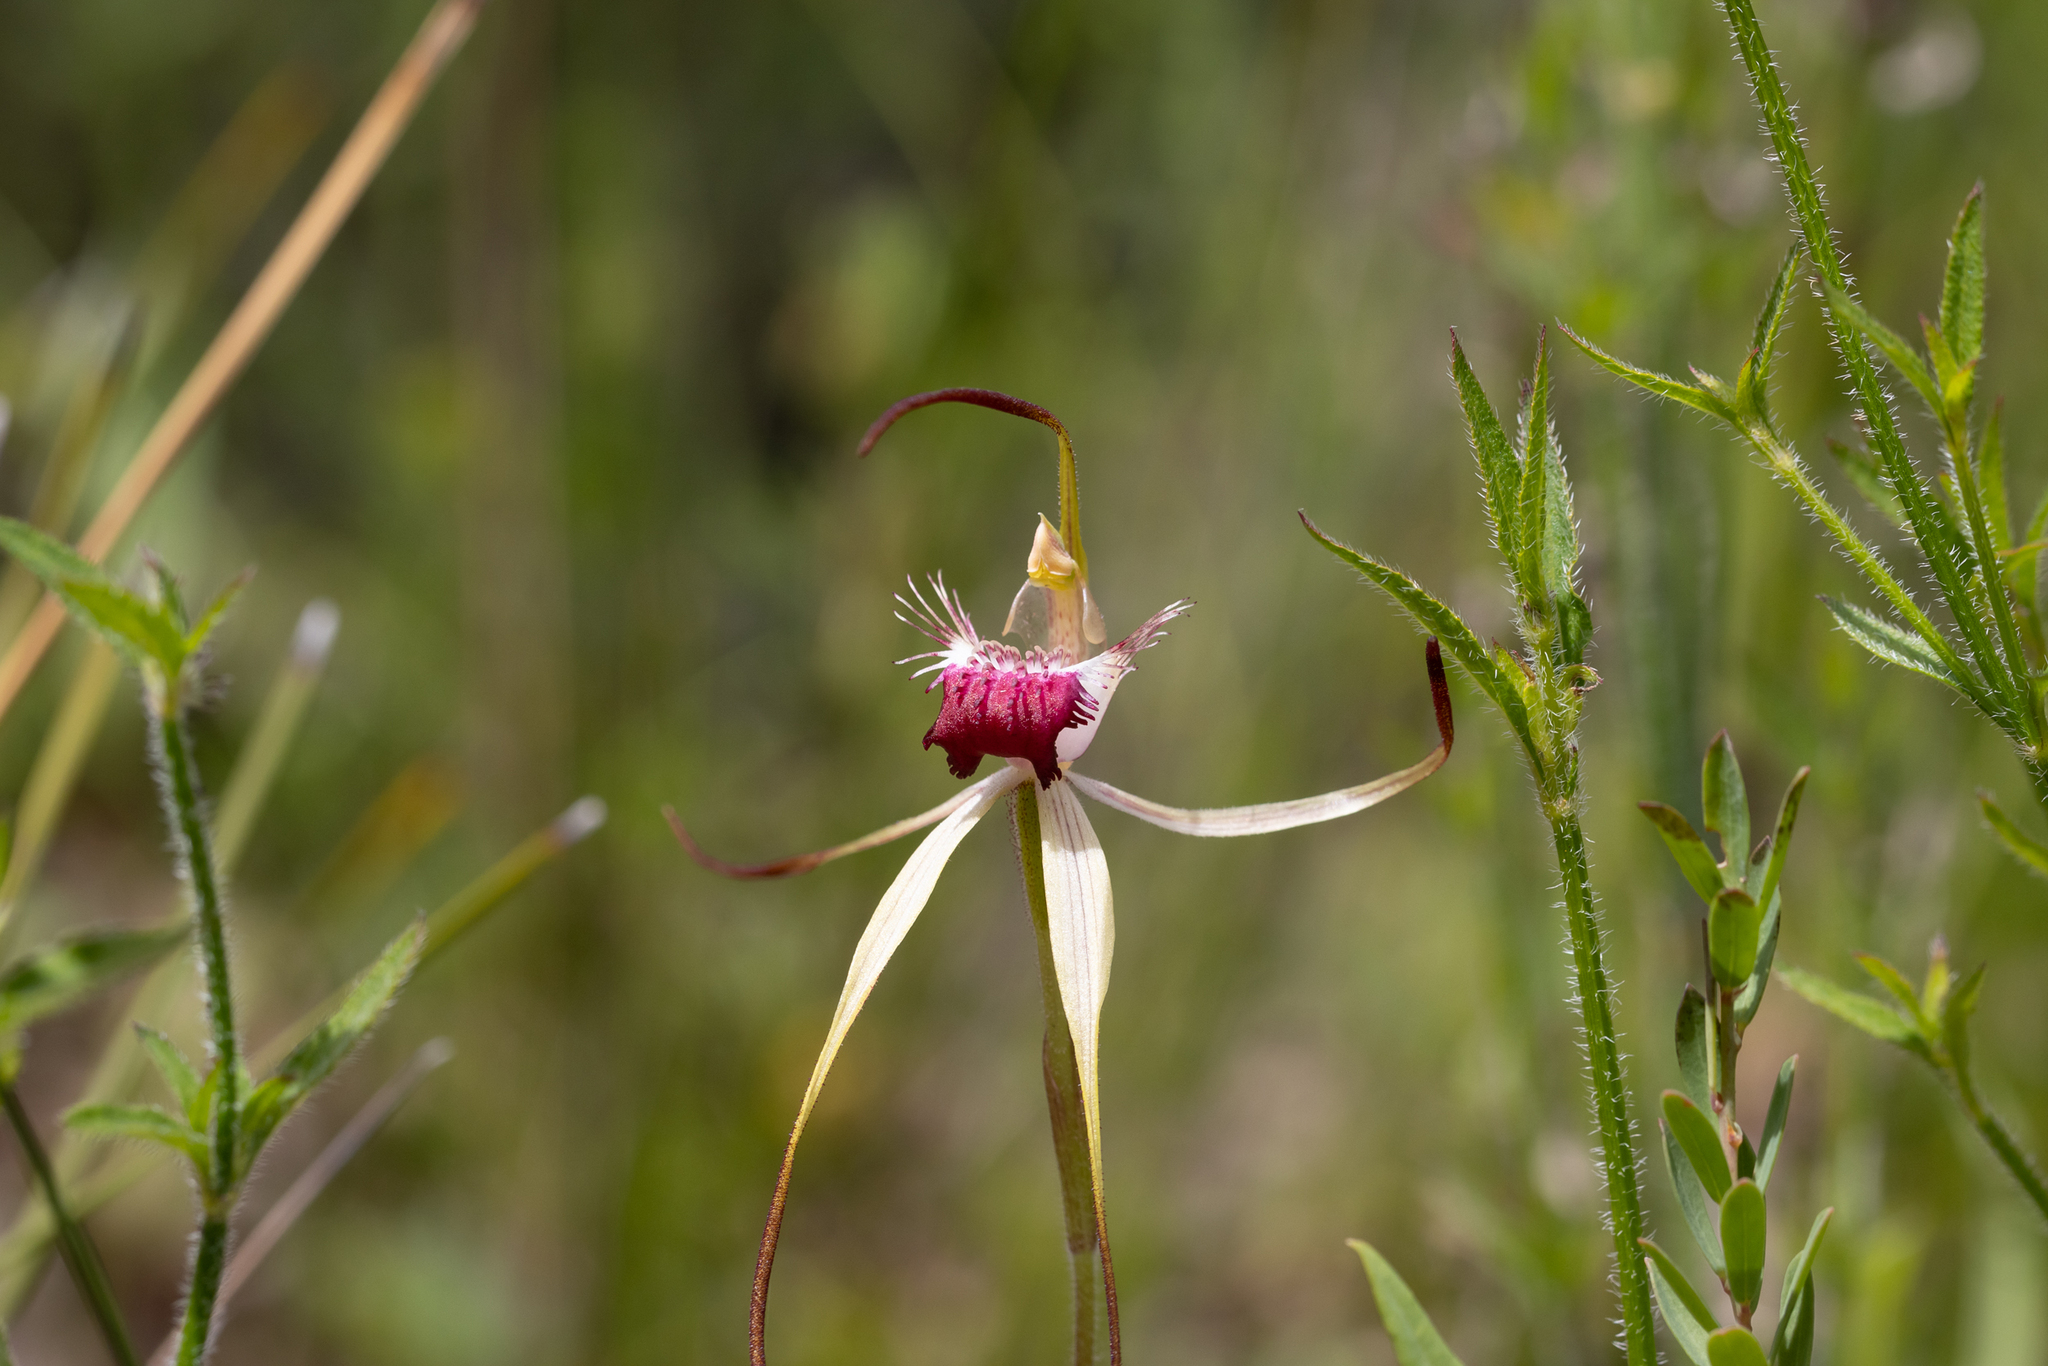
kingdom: Plantae
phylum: Tracheophyta
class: Liliopsida
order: Asparagales
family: Orchidaceae
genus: Caladenia
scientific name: Caladenia heberleana
